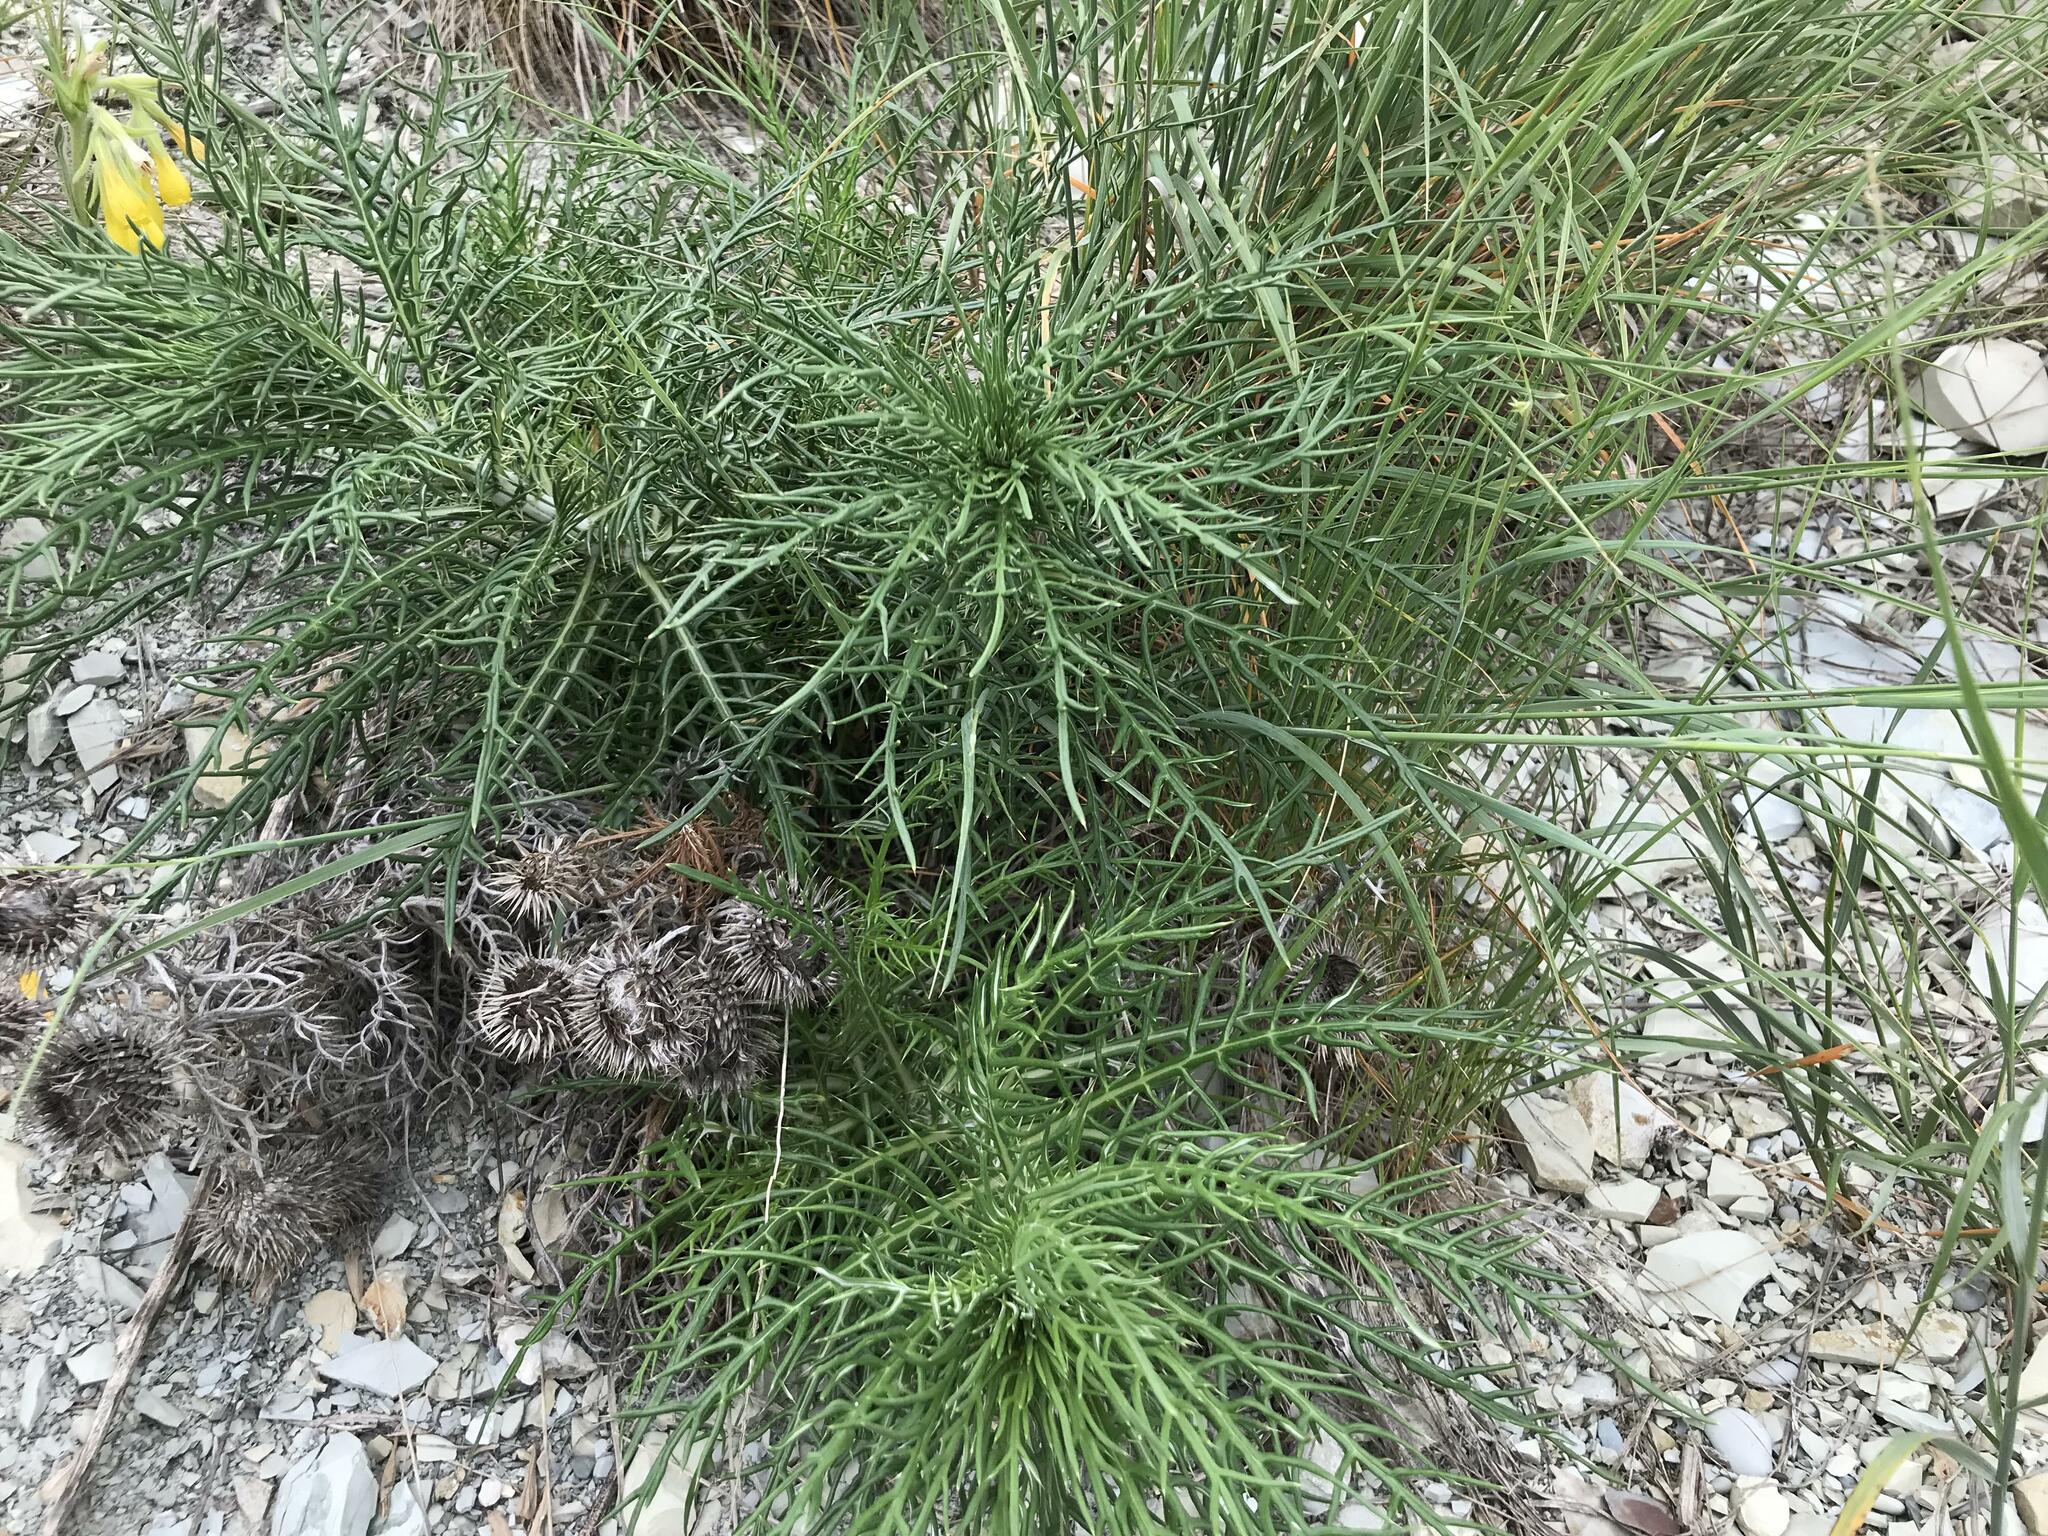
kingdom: Plantae
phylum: Tracheophyta
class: Magnoliopsida
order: Asterales
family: Asteraceae
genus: Ptilostemon
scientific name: Ptilostemon echinocephalus
